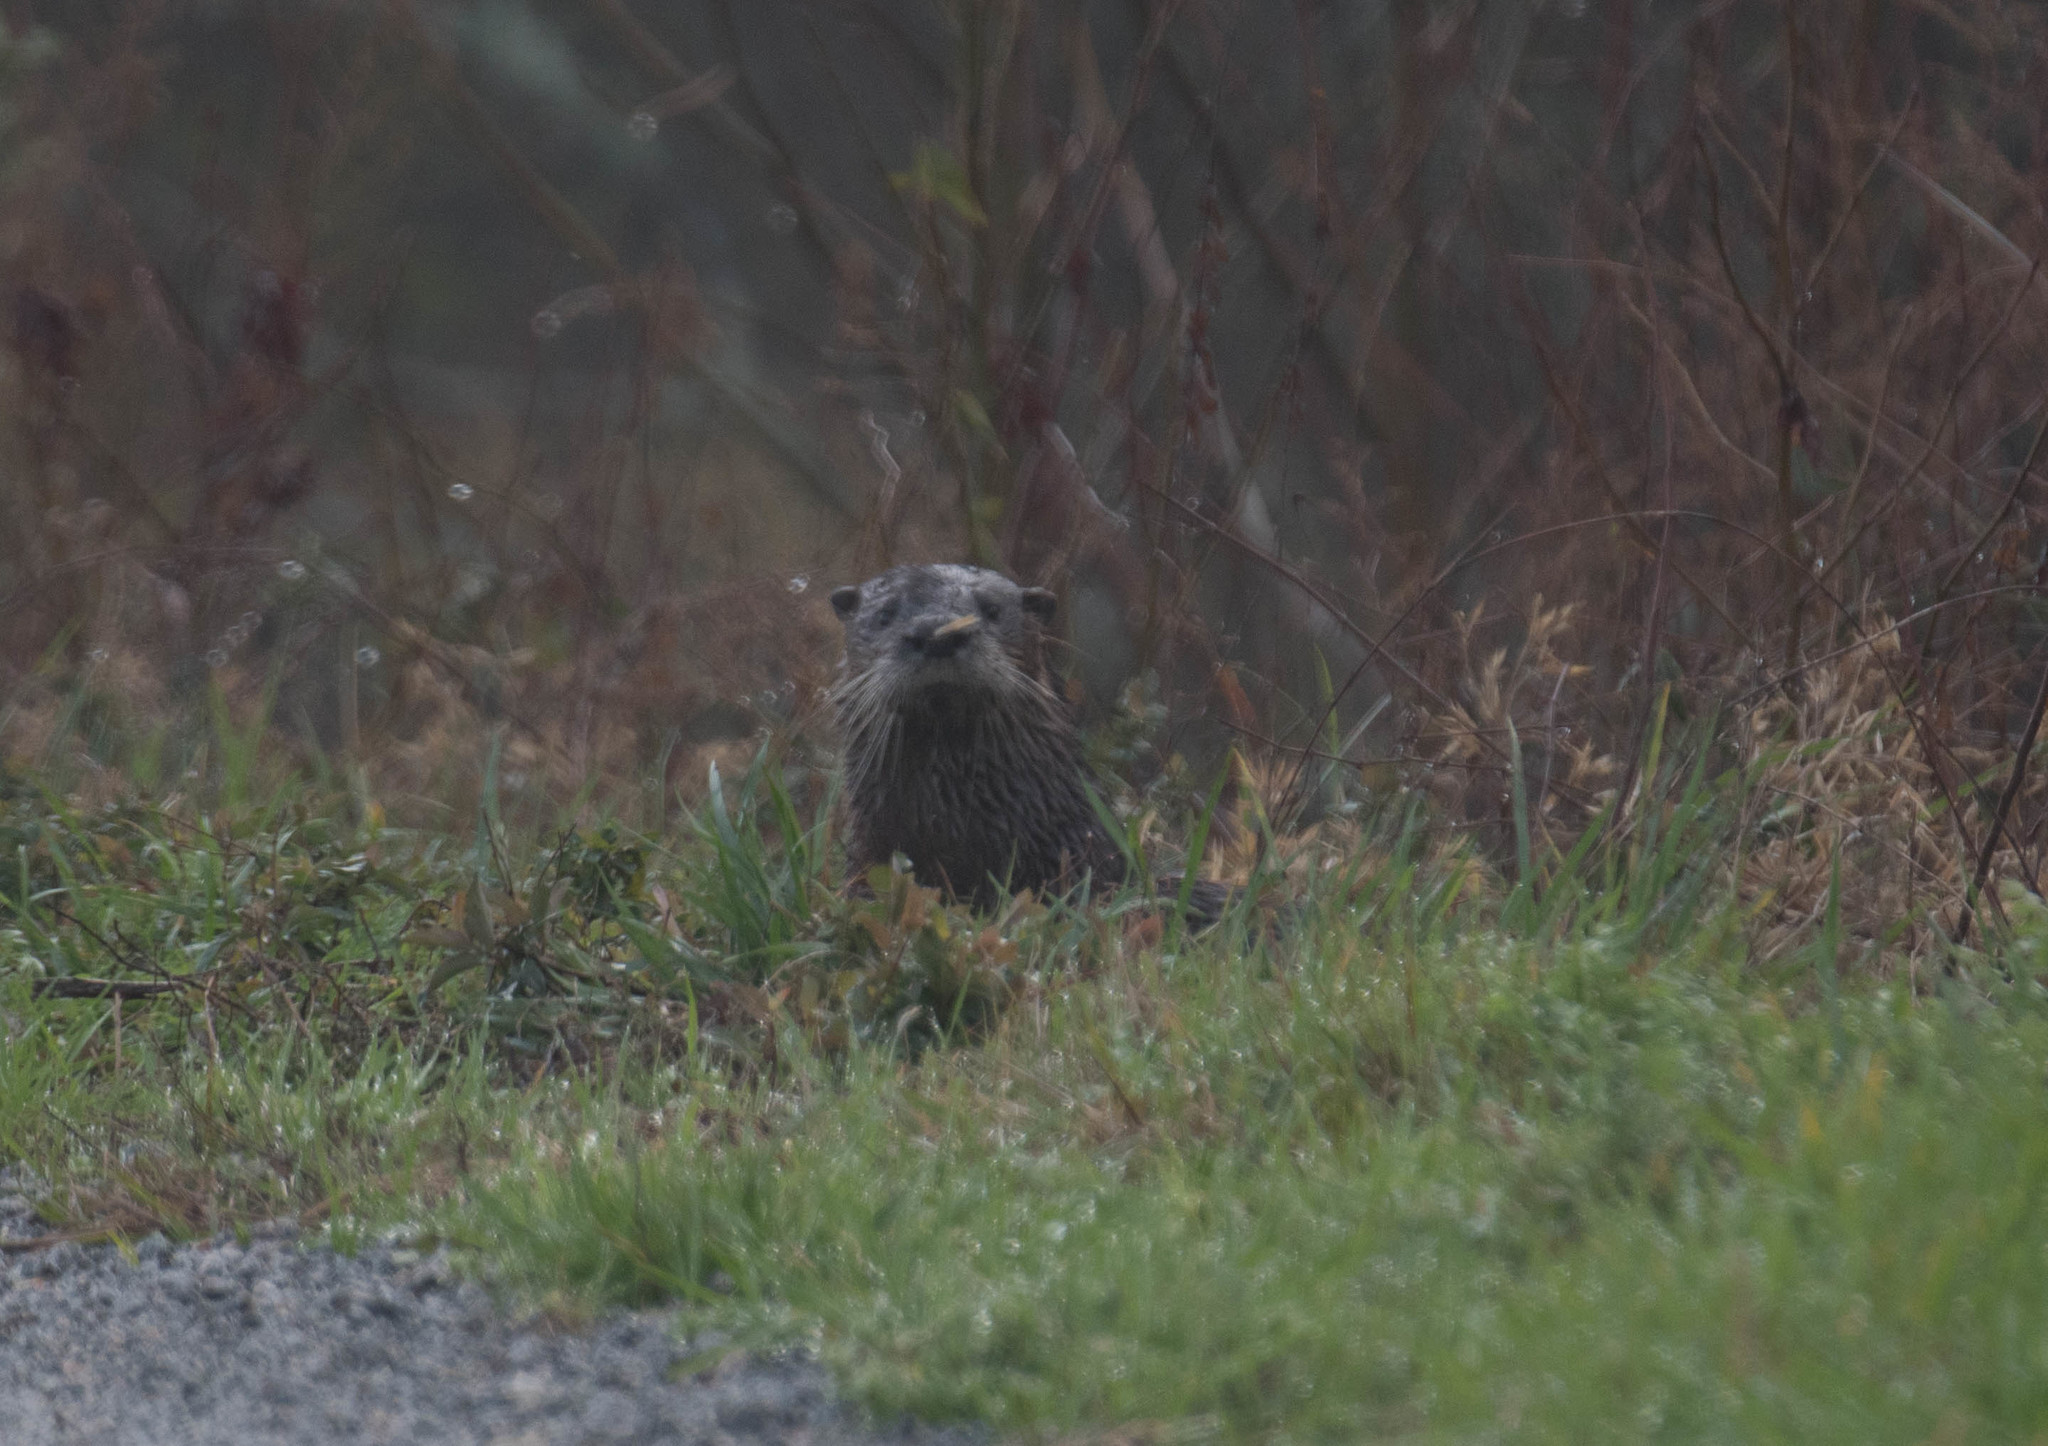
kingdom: Animalia
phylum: Chordata
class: Mammalia
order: Carnivora
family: Mustelidae
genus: Lontra
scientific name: Lontra canadensis
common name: North american river otter
